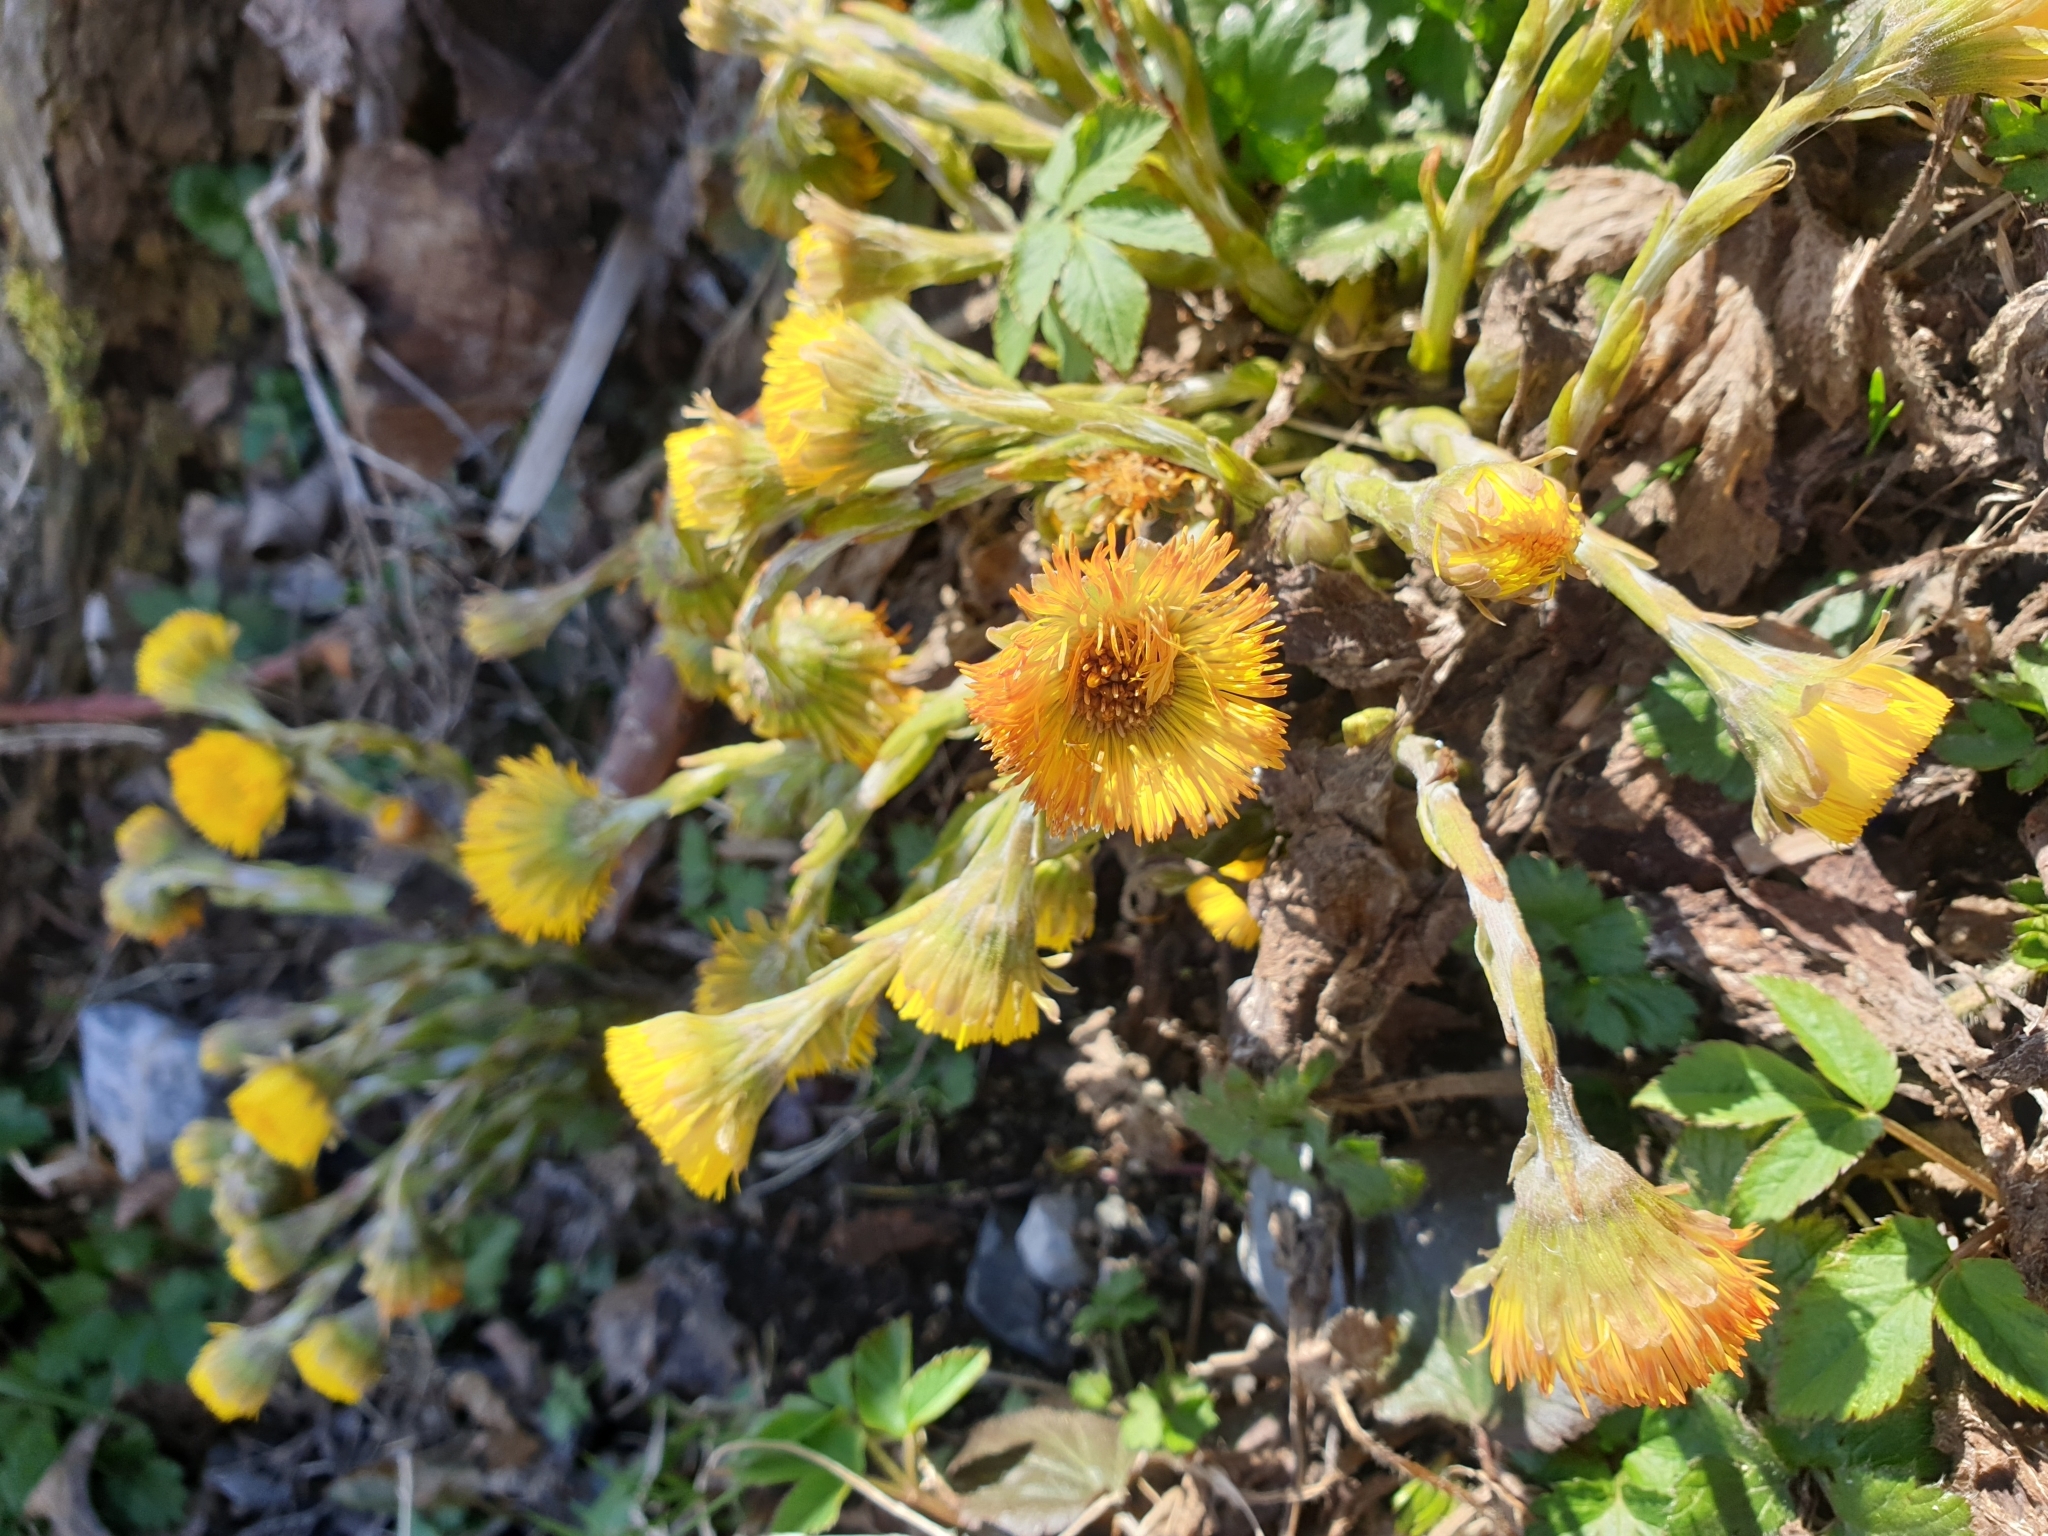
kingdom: Plantae
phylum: Tracheophyta
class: Magnoliopsida
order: Asterales
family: Asteraceae
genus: Tussilago
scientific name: Tussilago farfara
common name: Coltsfoot
